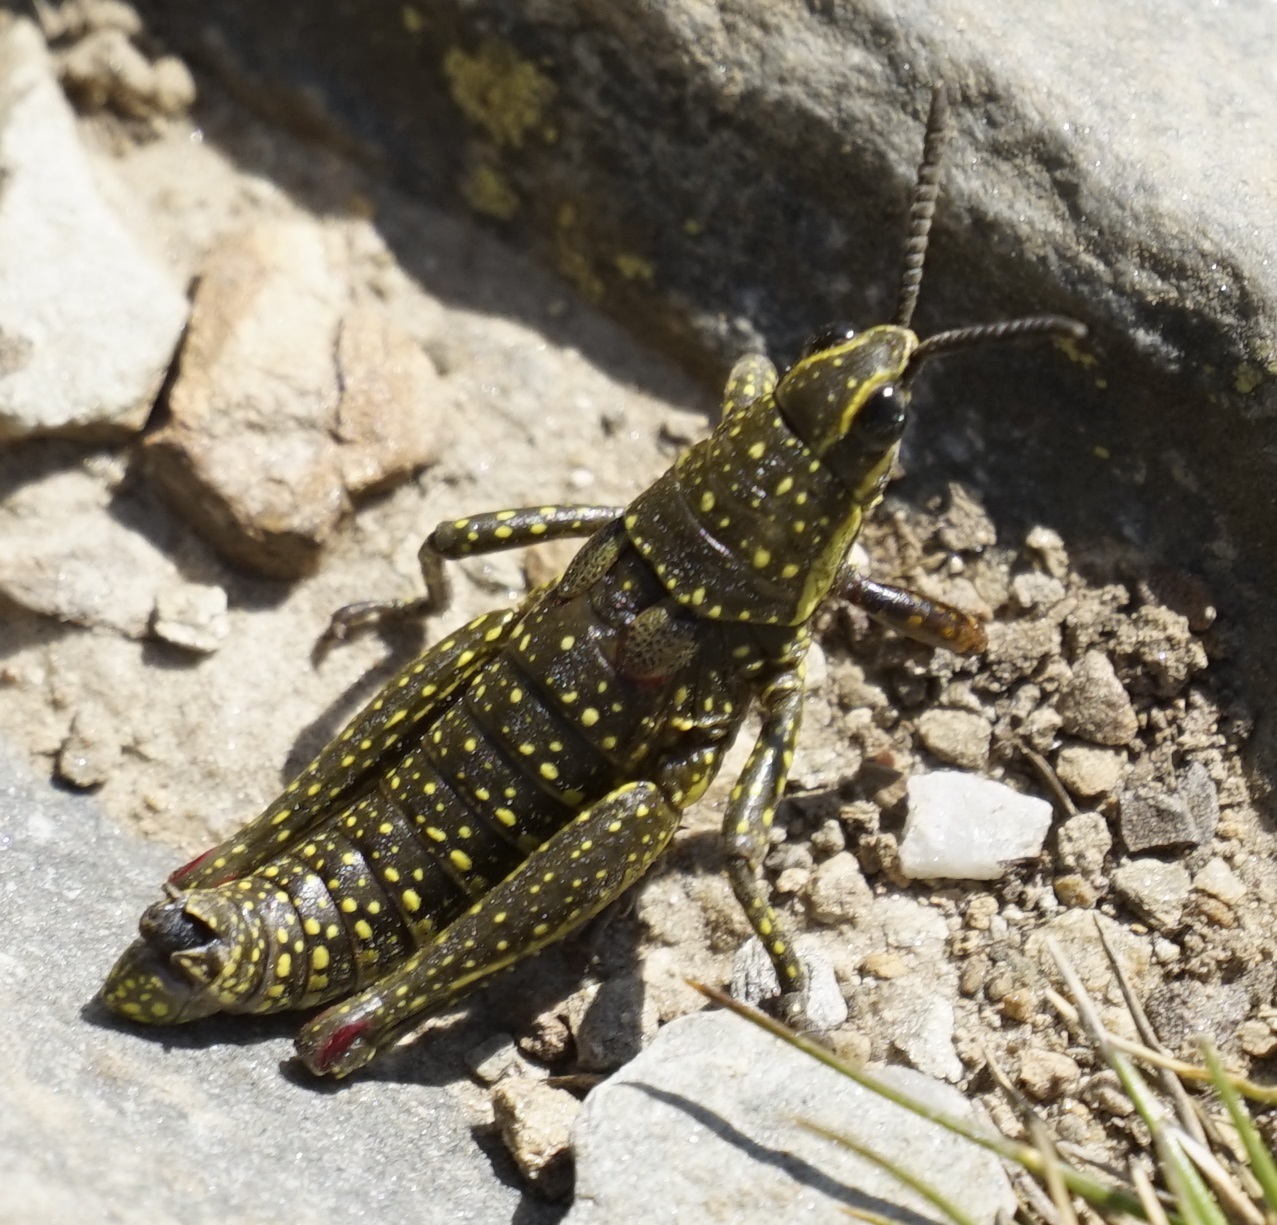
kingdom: Animalia
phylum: Arthropoda
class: Insecta
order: Orthoptera
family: Pyrgomorphidae
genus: Monistria
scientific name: Monistria concinna
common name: Southern pyrgomorph
